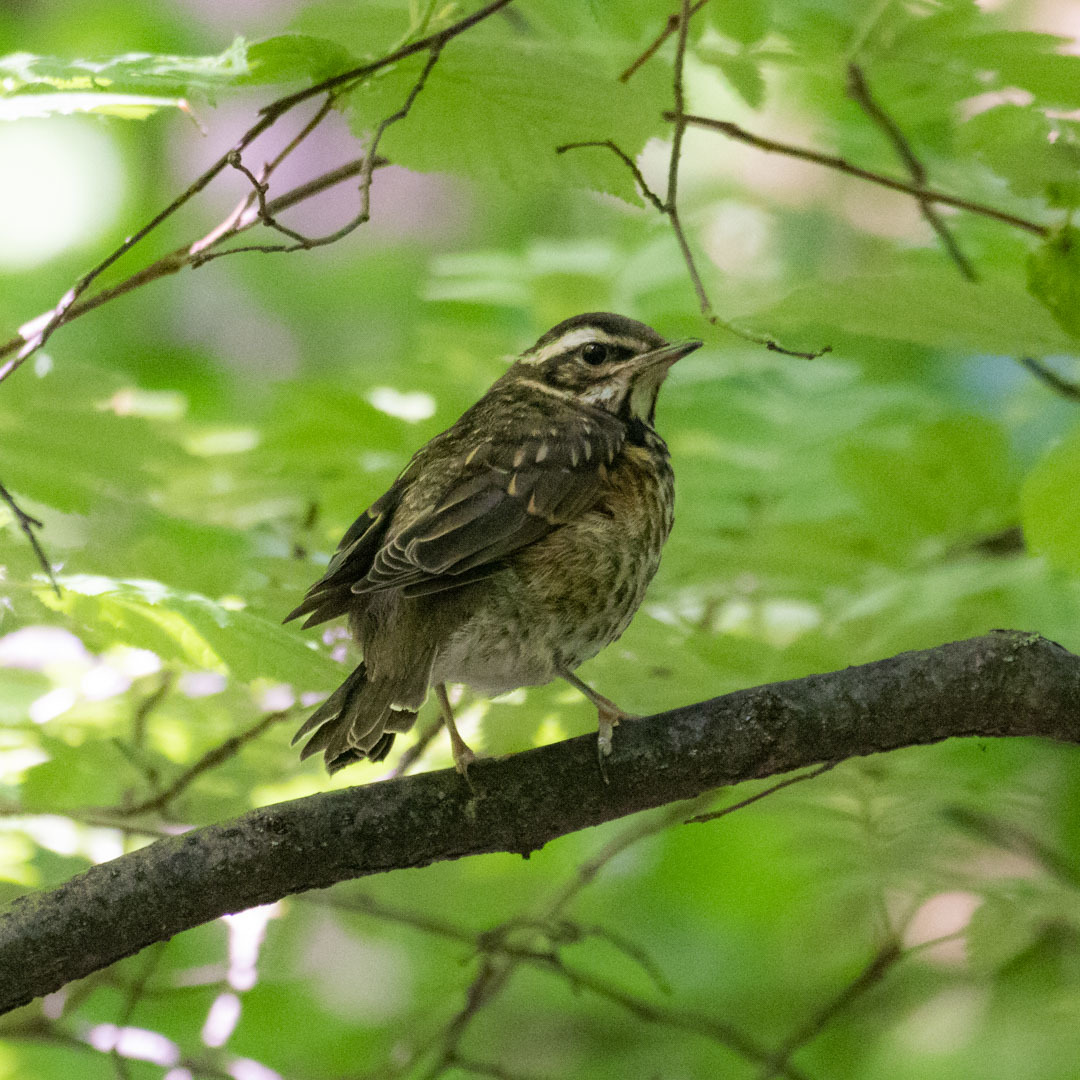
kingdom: Animalia
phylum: Chordata
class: Aves
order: Passeriformes
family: Turdidae
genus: Turdus
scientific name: Turdus iliacus
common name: Redwing
